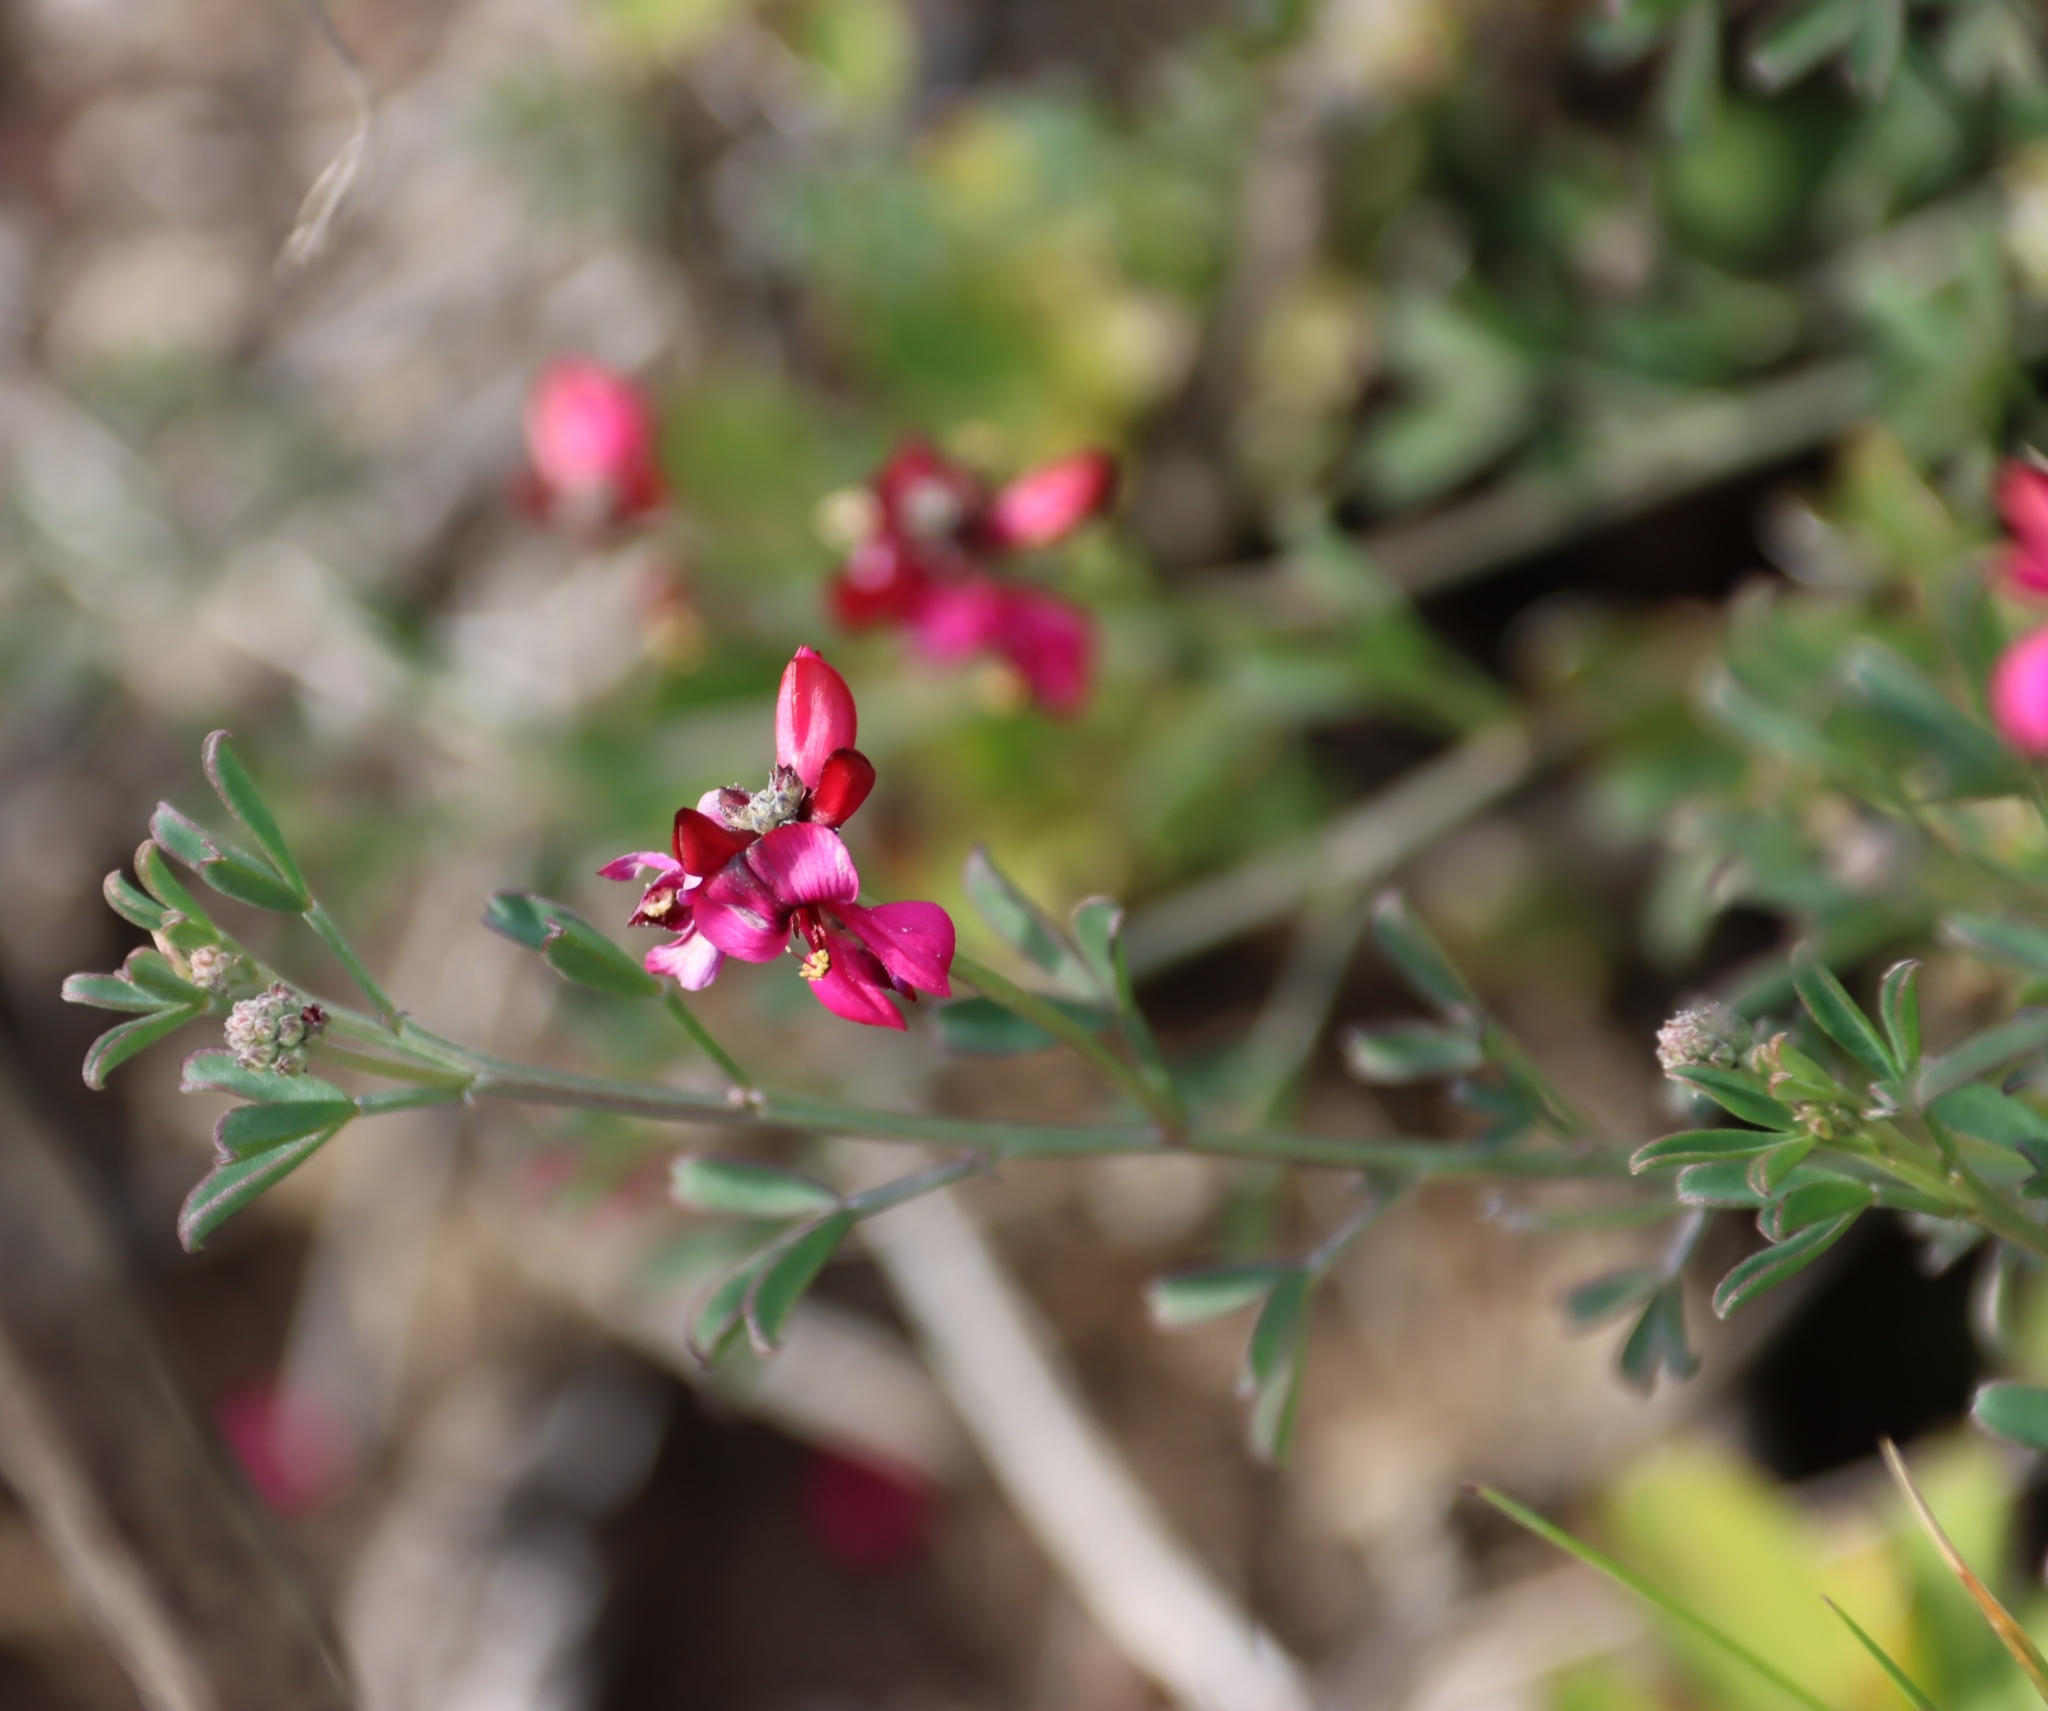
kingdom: Plantae
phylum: Tracheophyta
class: Magnoliopsida
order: Fabales
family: Fabaceae
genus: Indigofera
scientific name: Indigofera complicata
